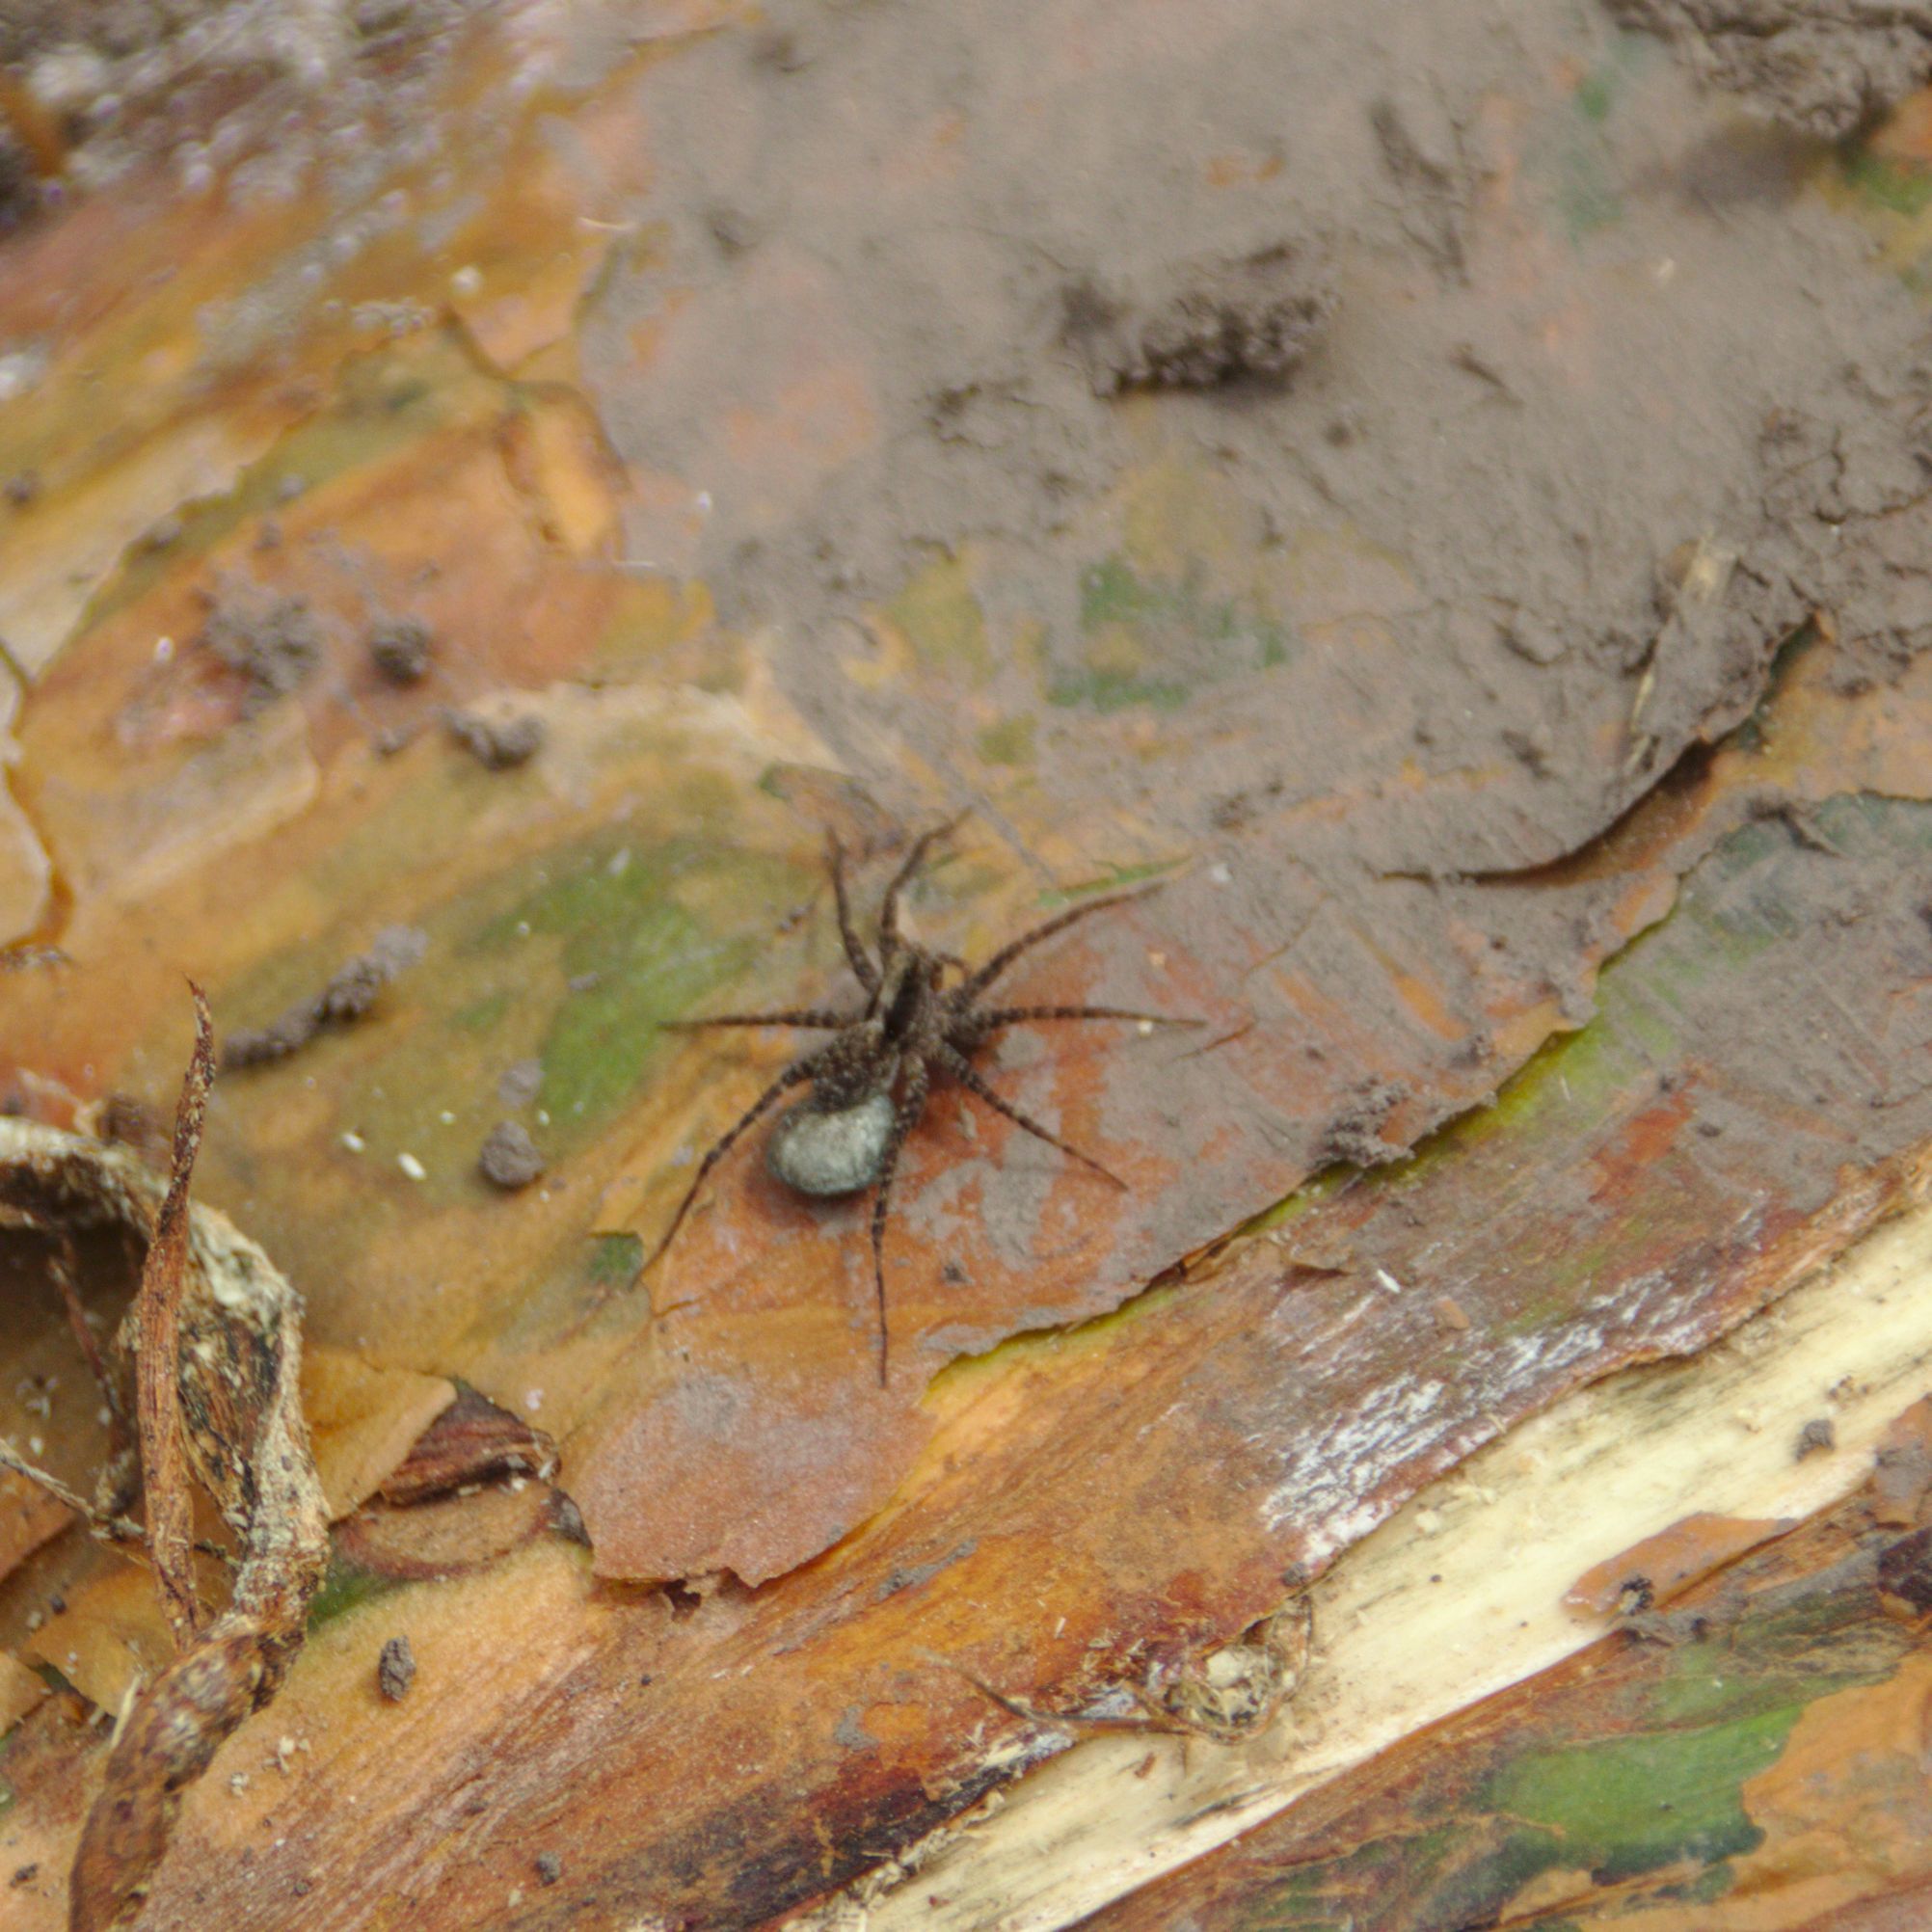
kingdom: Animalia
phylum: Arthropoda
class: Arachnida
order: Araneae
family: Lycosidae
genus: Pardosa
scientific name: Pardosa
